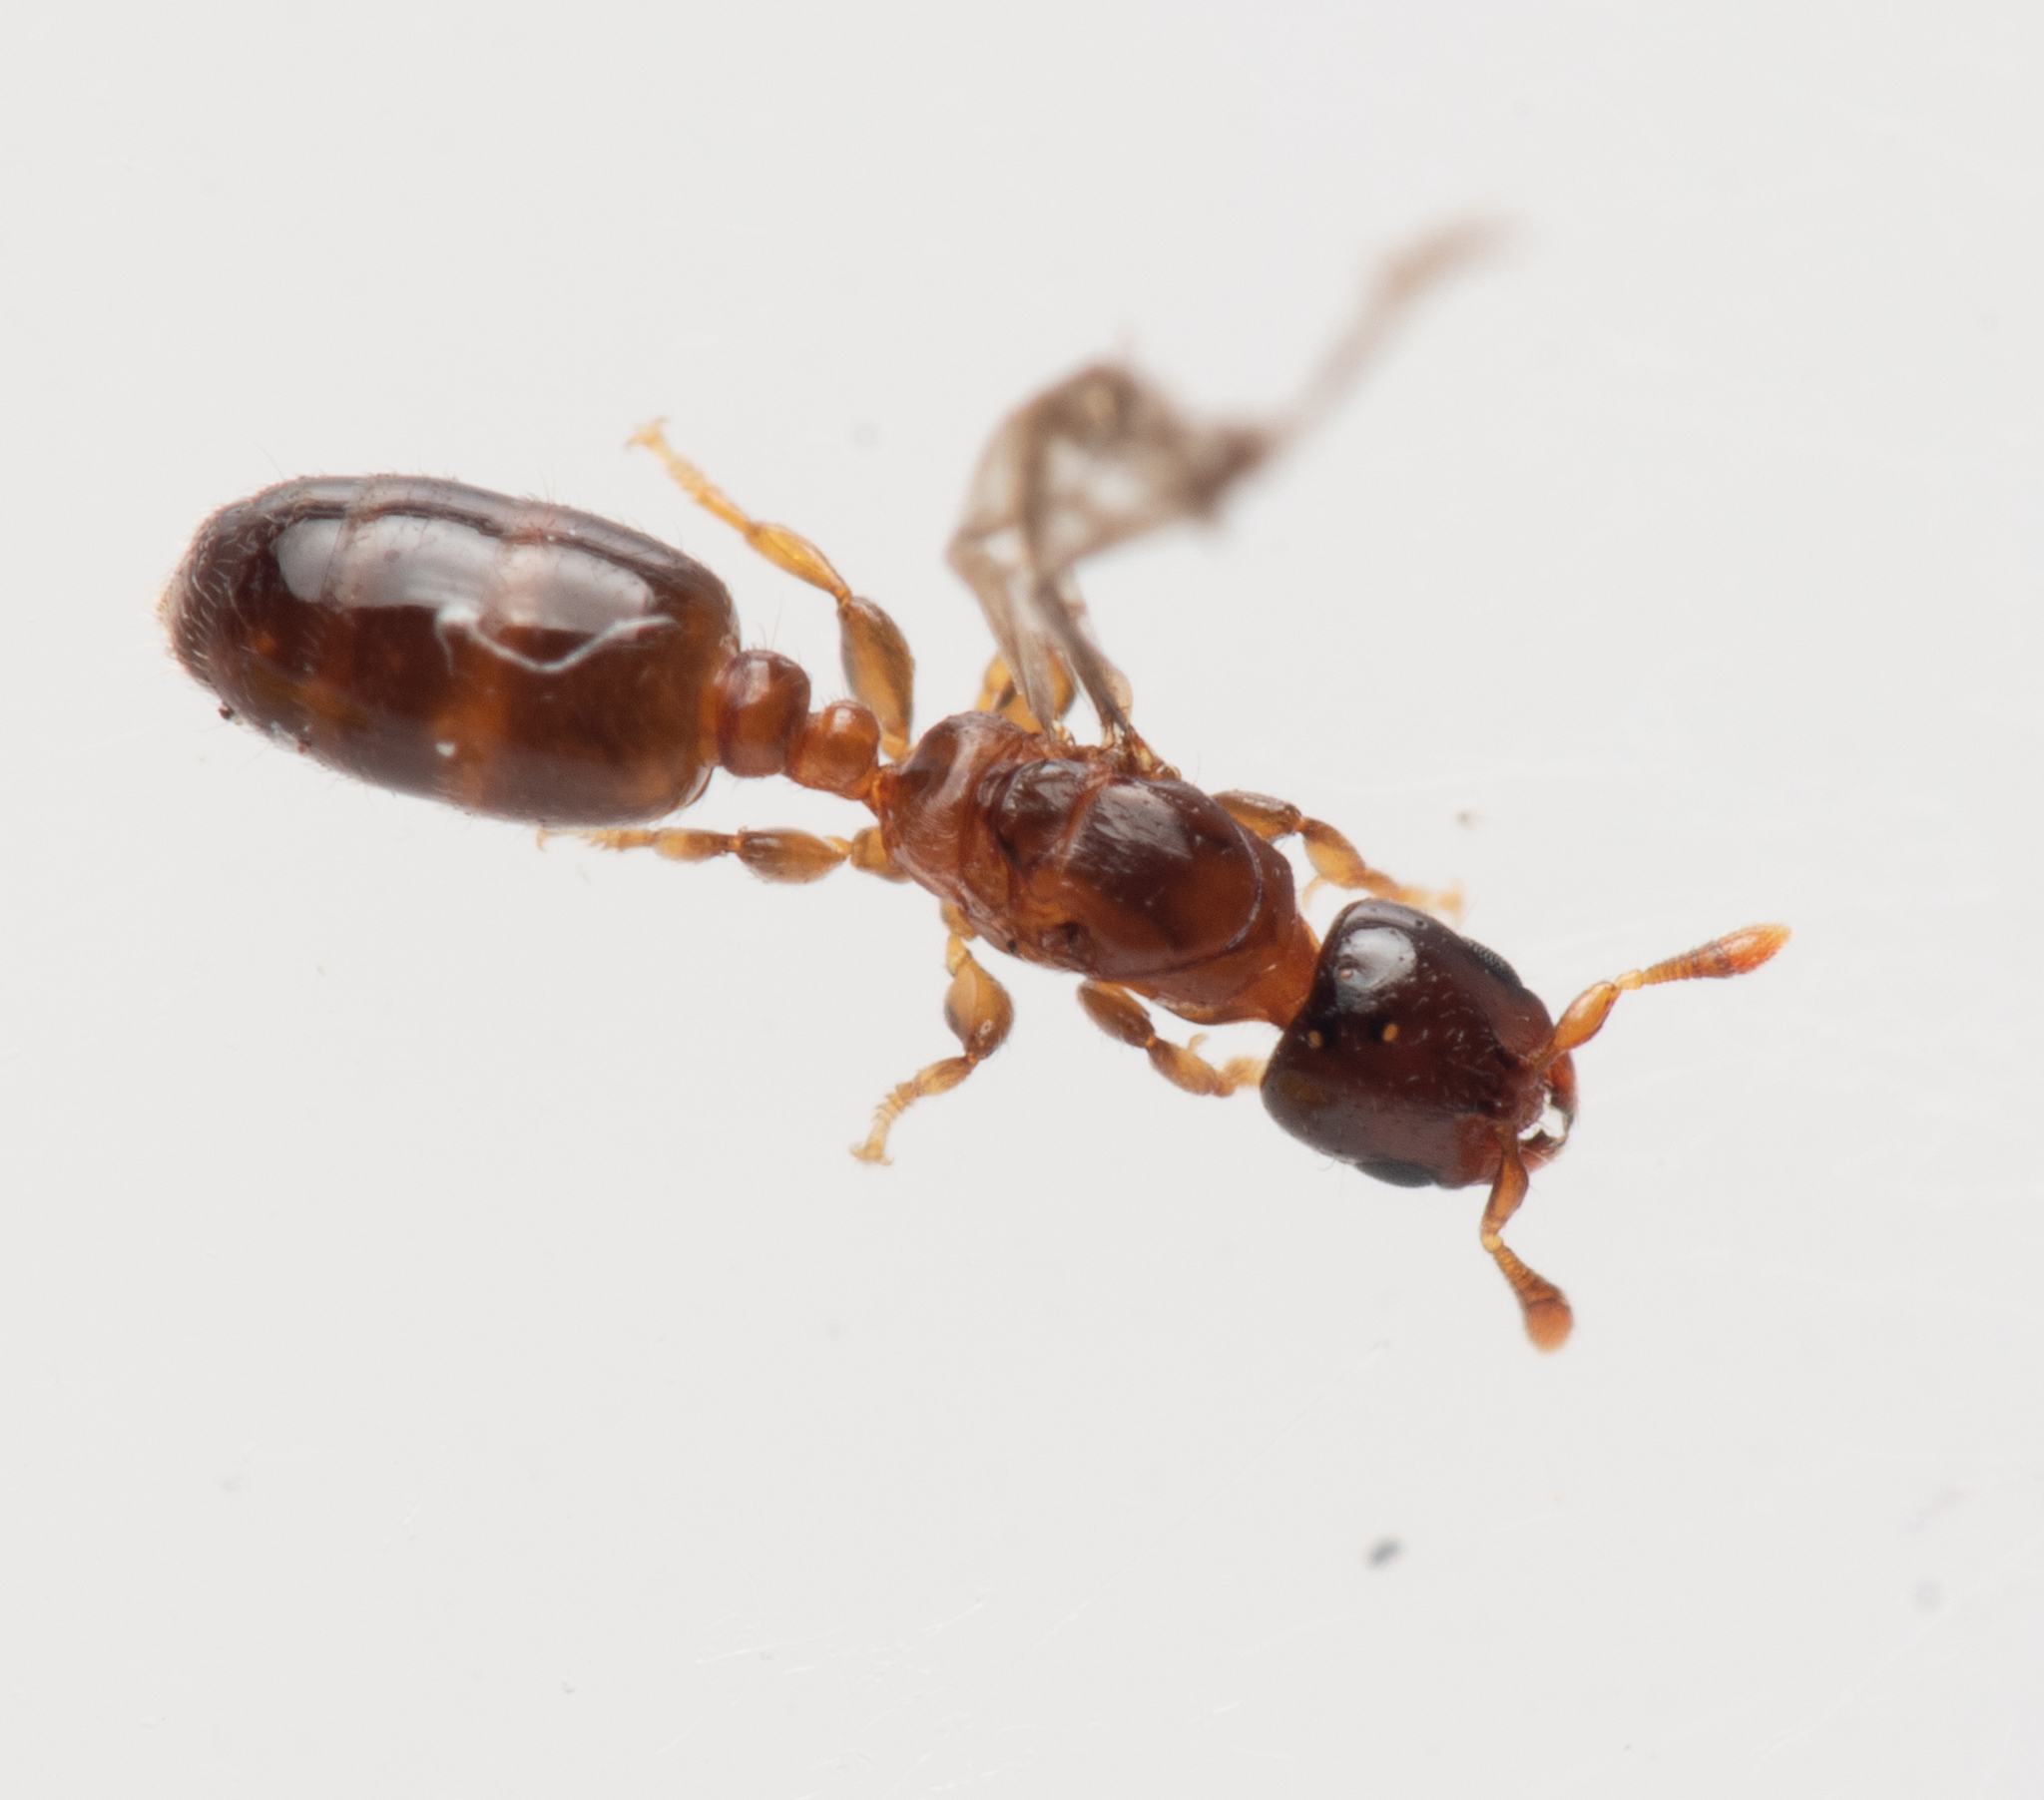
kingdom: Animalia
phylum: Arthropoda
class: Insecta
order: Hymenoptera
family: Formicidae
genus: Rhopalomastix
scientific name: Rhopalomastix rothneyi
